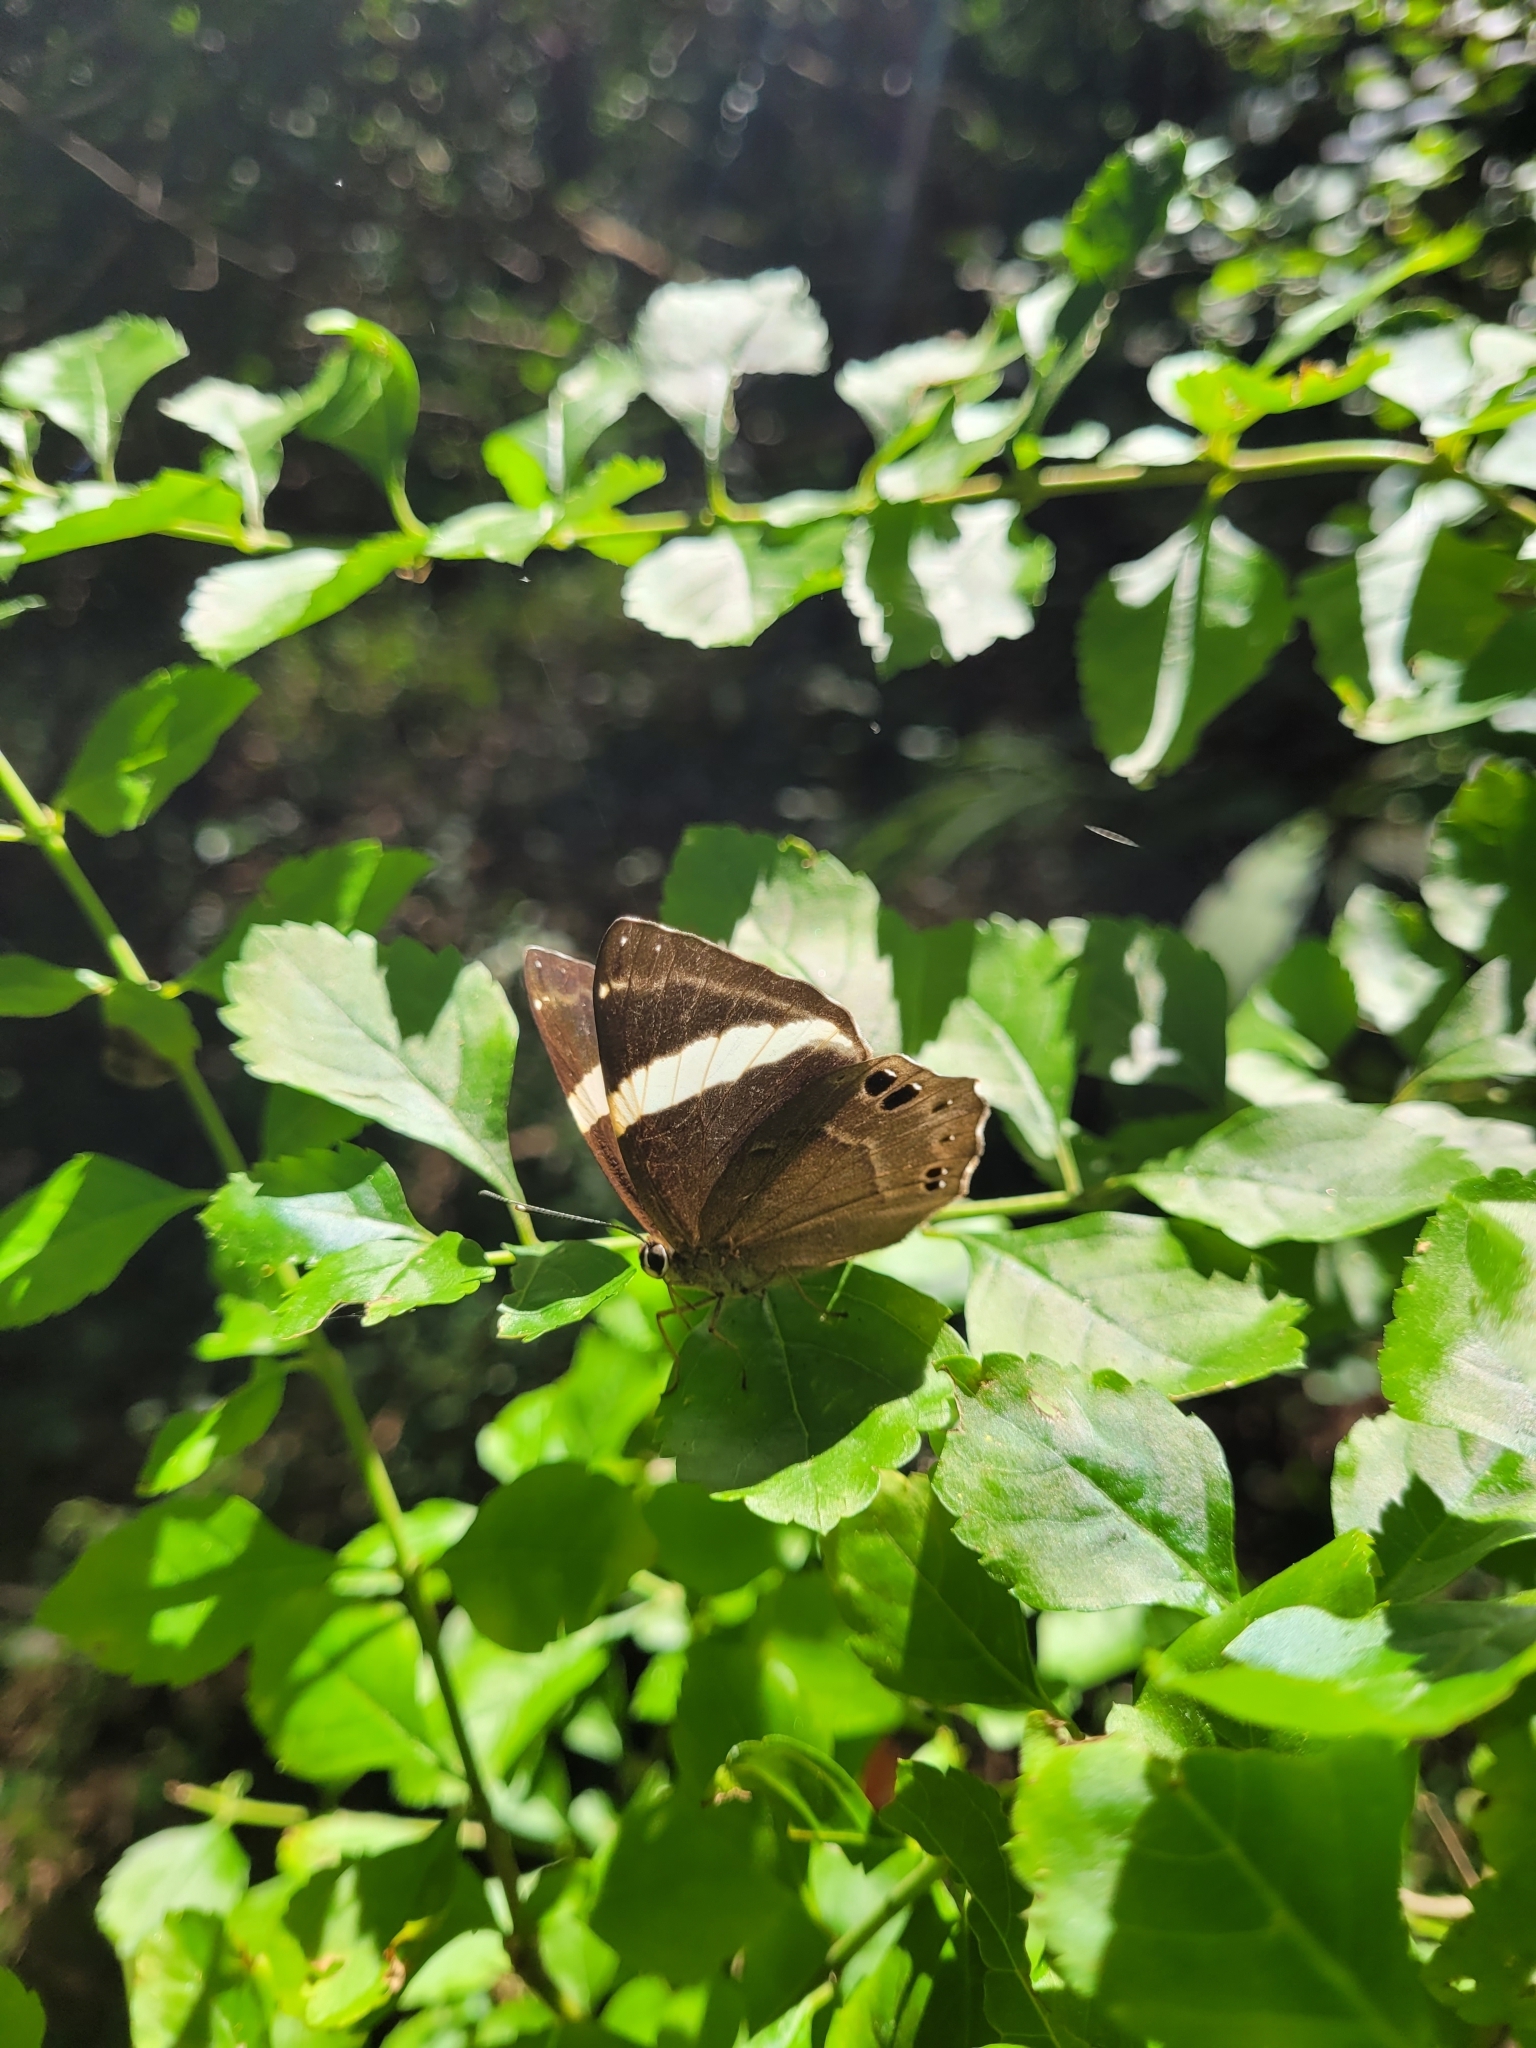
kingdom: Animalia
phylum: Arthropoda
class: Insecta
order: Lepidoptera
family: Lycaenidae
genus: Abisara
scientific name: Abisara fylla
